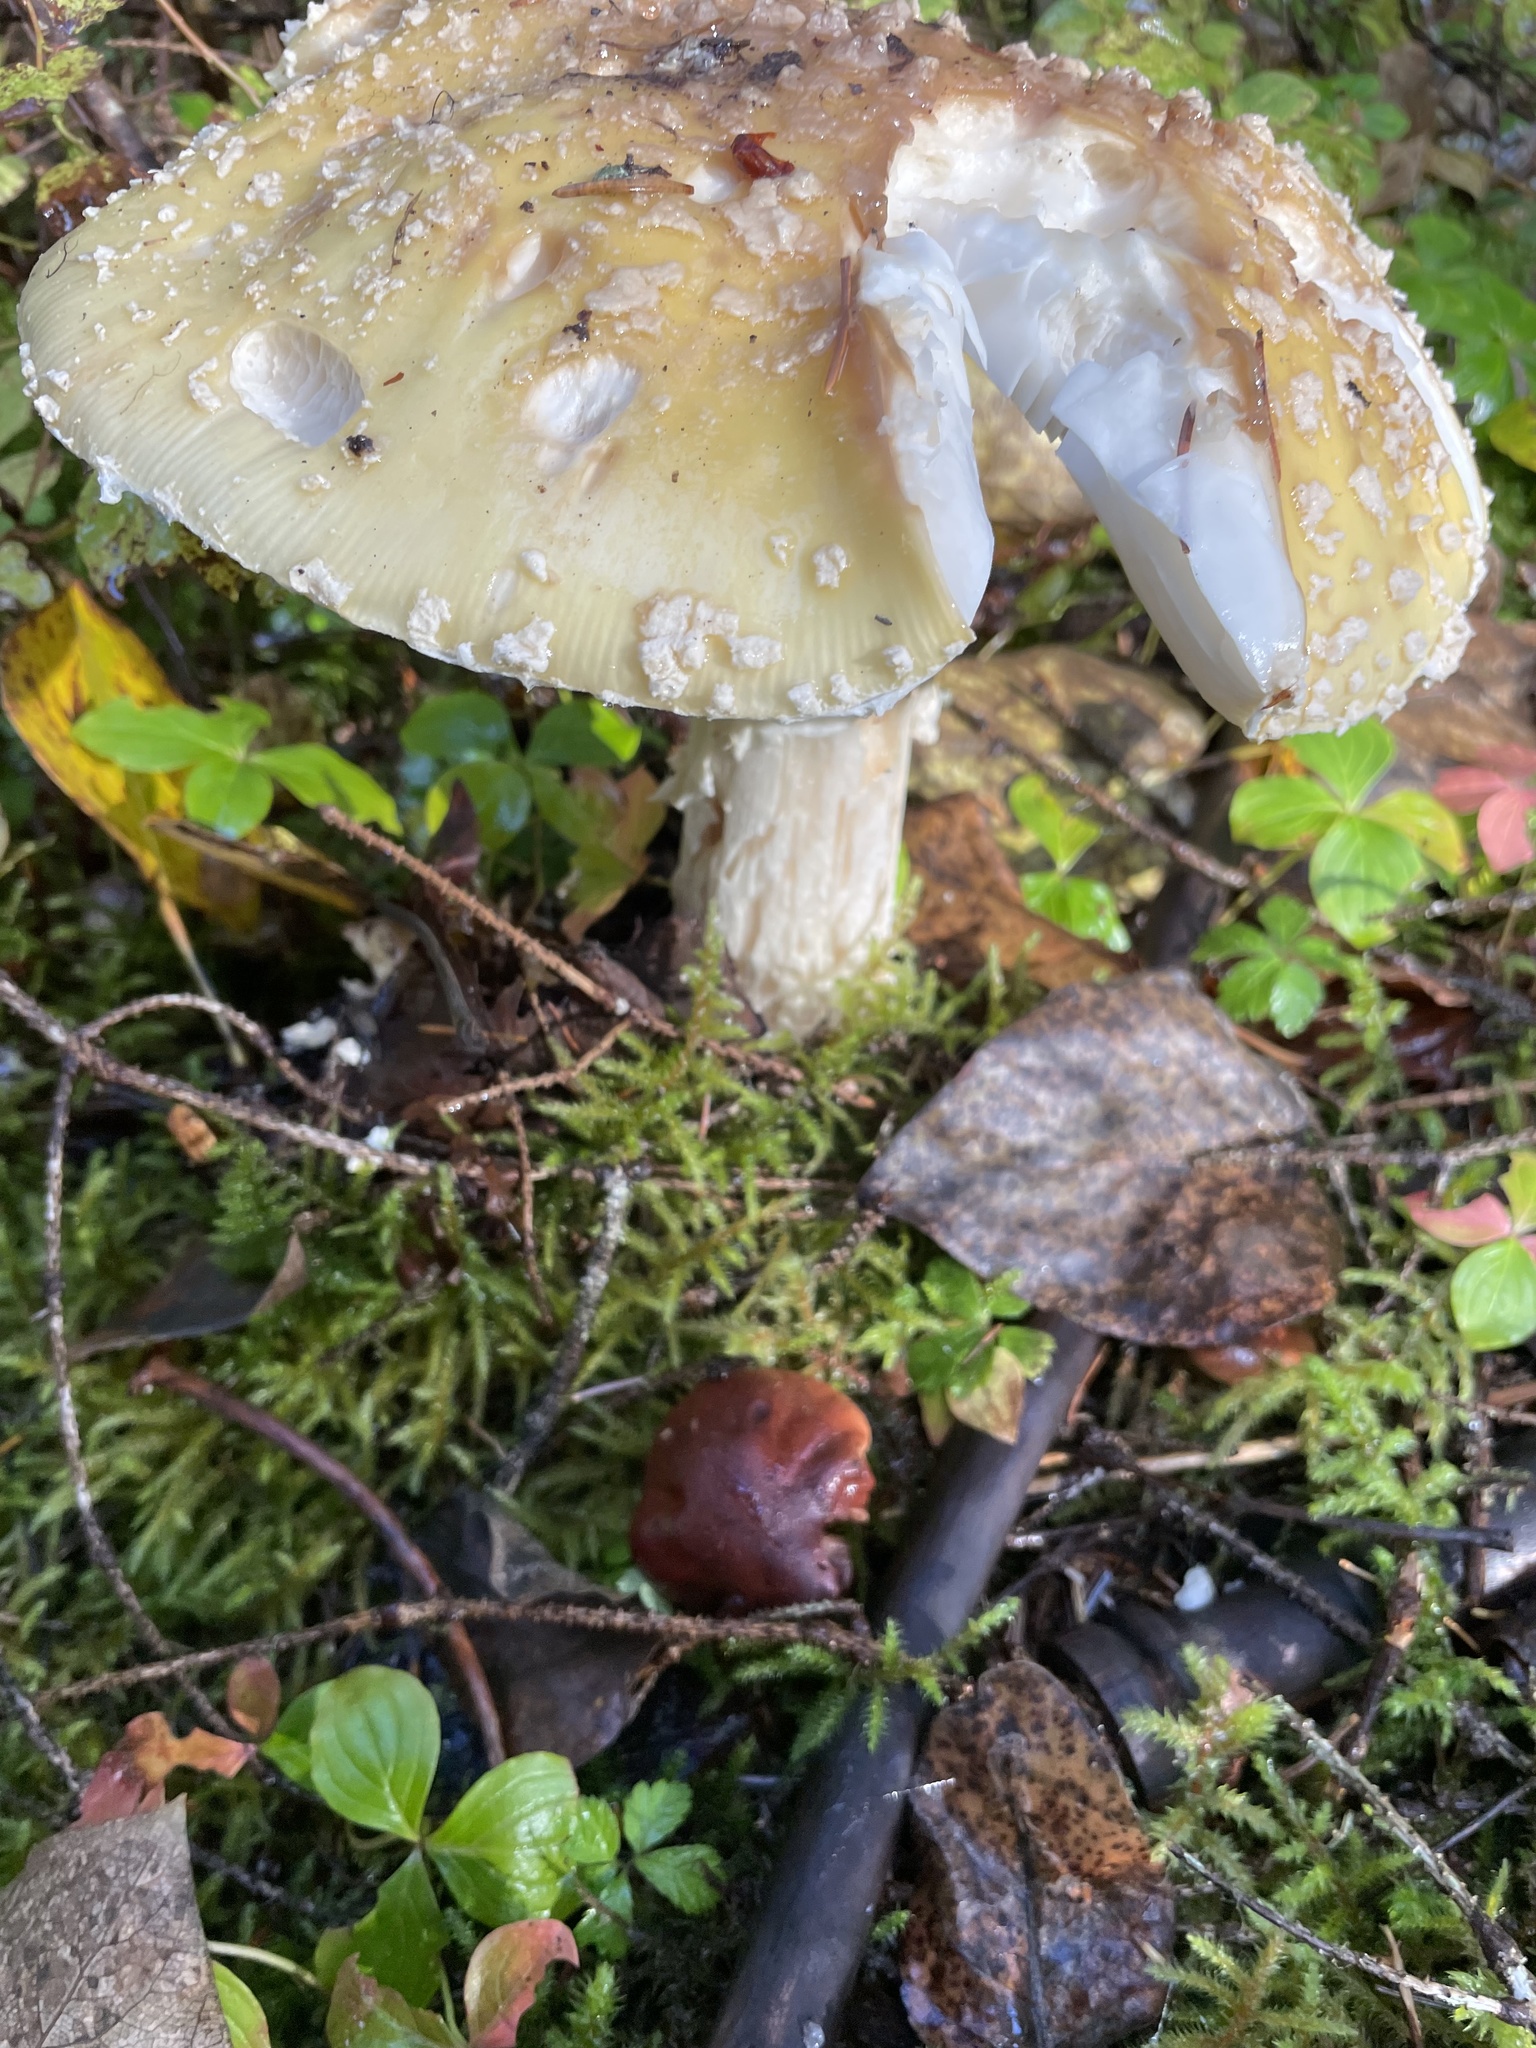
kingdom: Fungi
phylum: Basidiomycota
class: Agaricomycetes
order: Agaricales
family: Amanitaceae
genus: Amanita
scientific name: Amanita muscaria
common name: Fly agaric
